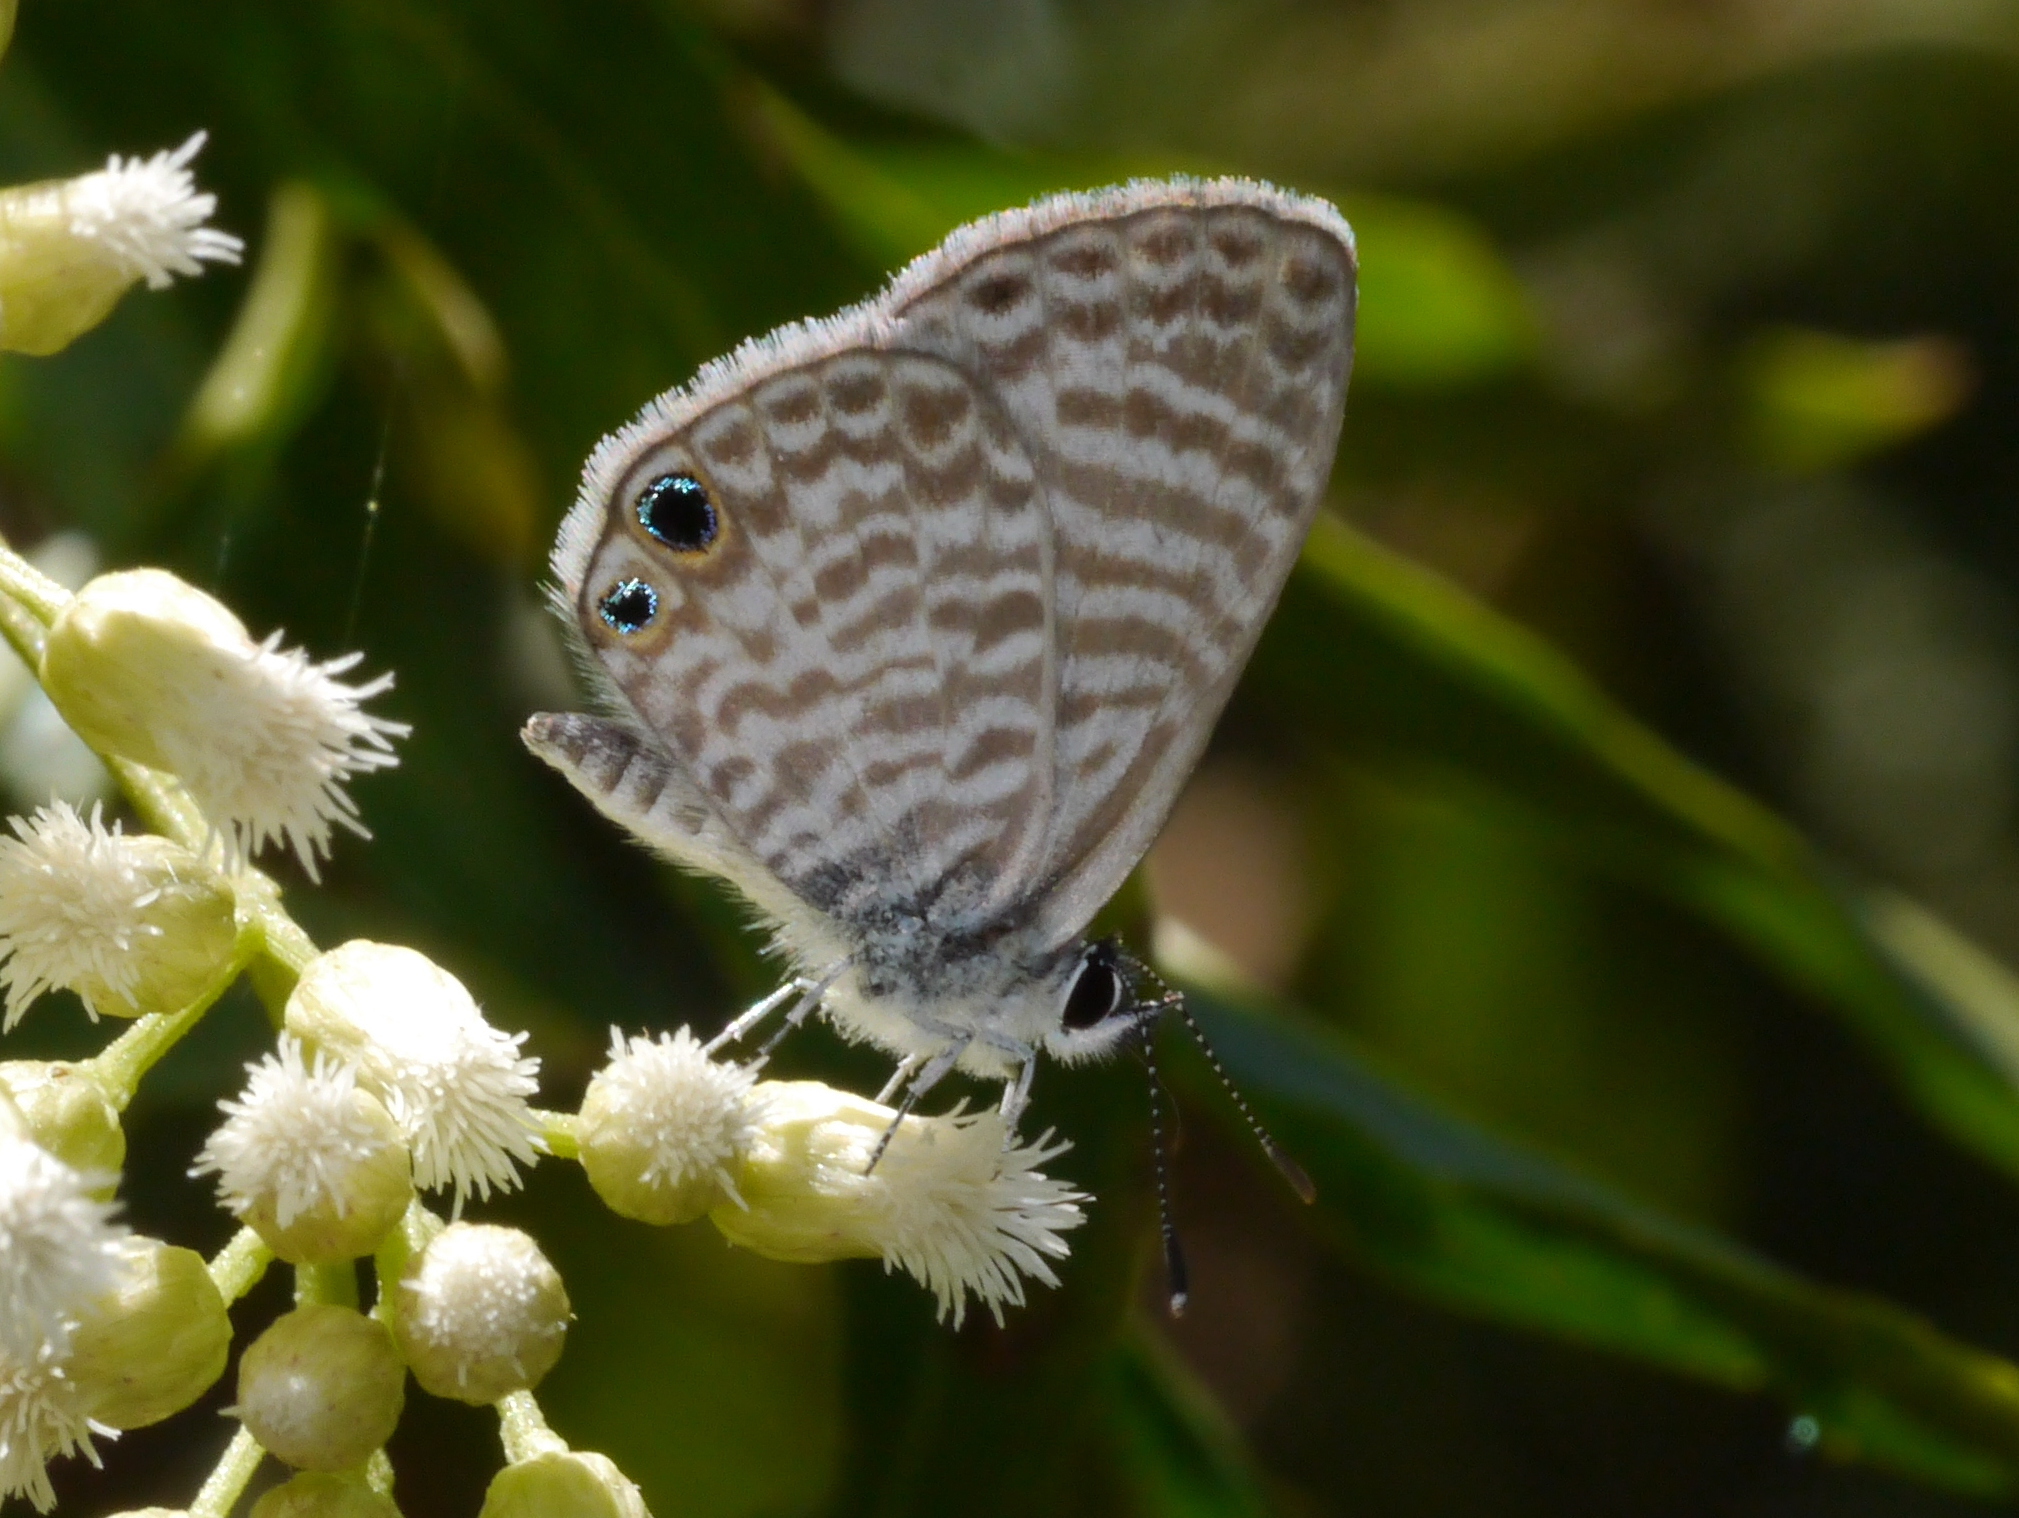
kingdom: Animalia
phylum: Arthropoda
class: Insecta
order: Lepidoptera
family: Lycaenidae
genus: Leptotes
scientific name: Leptotes marina
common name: Marine blue
